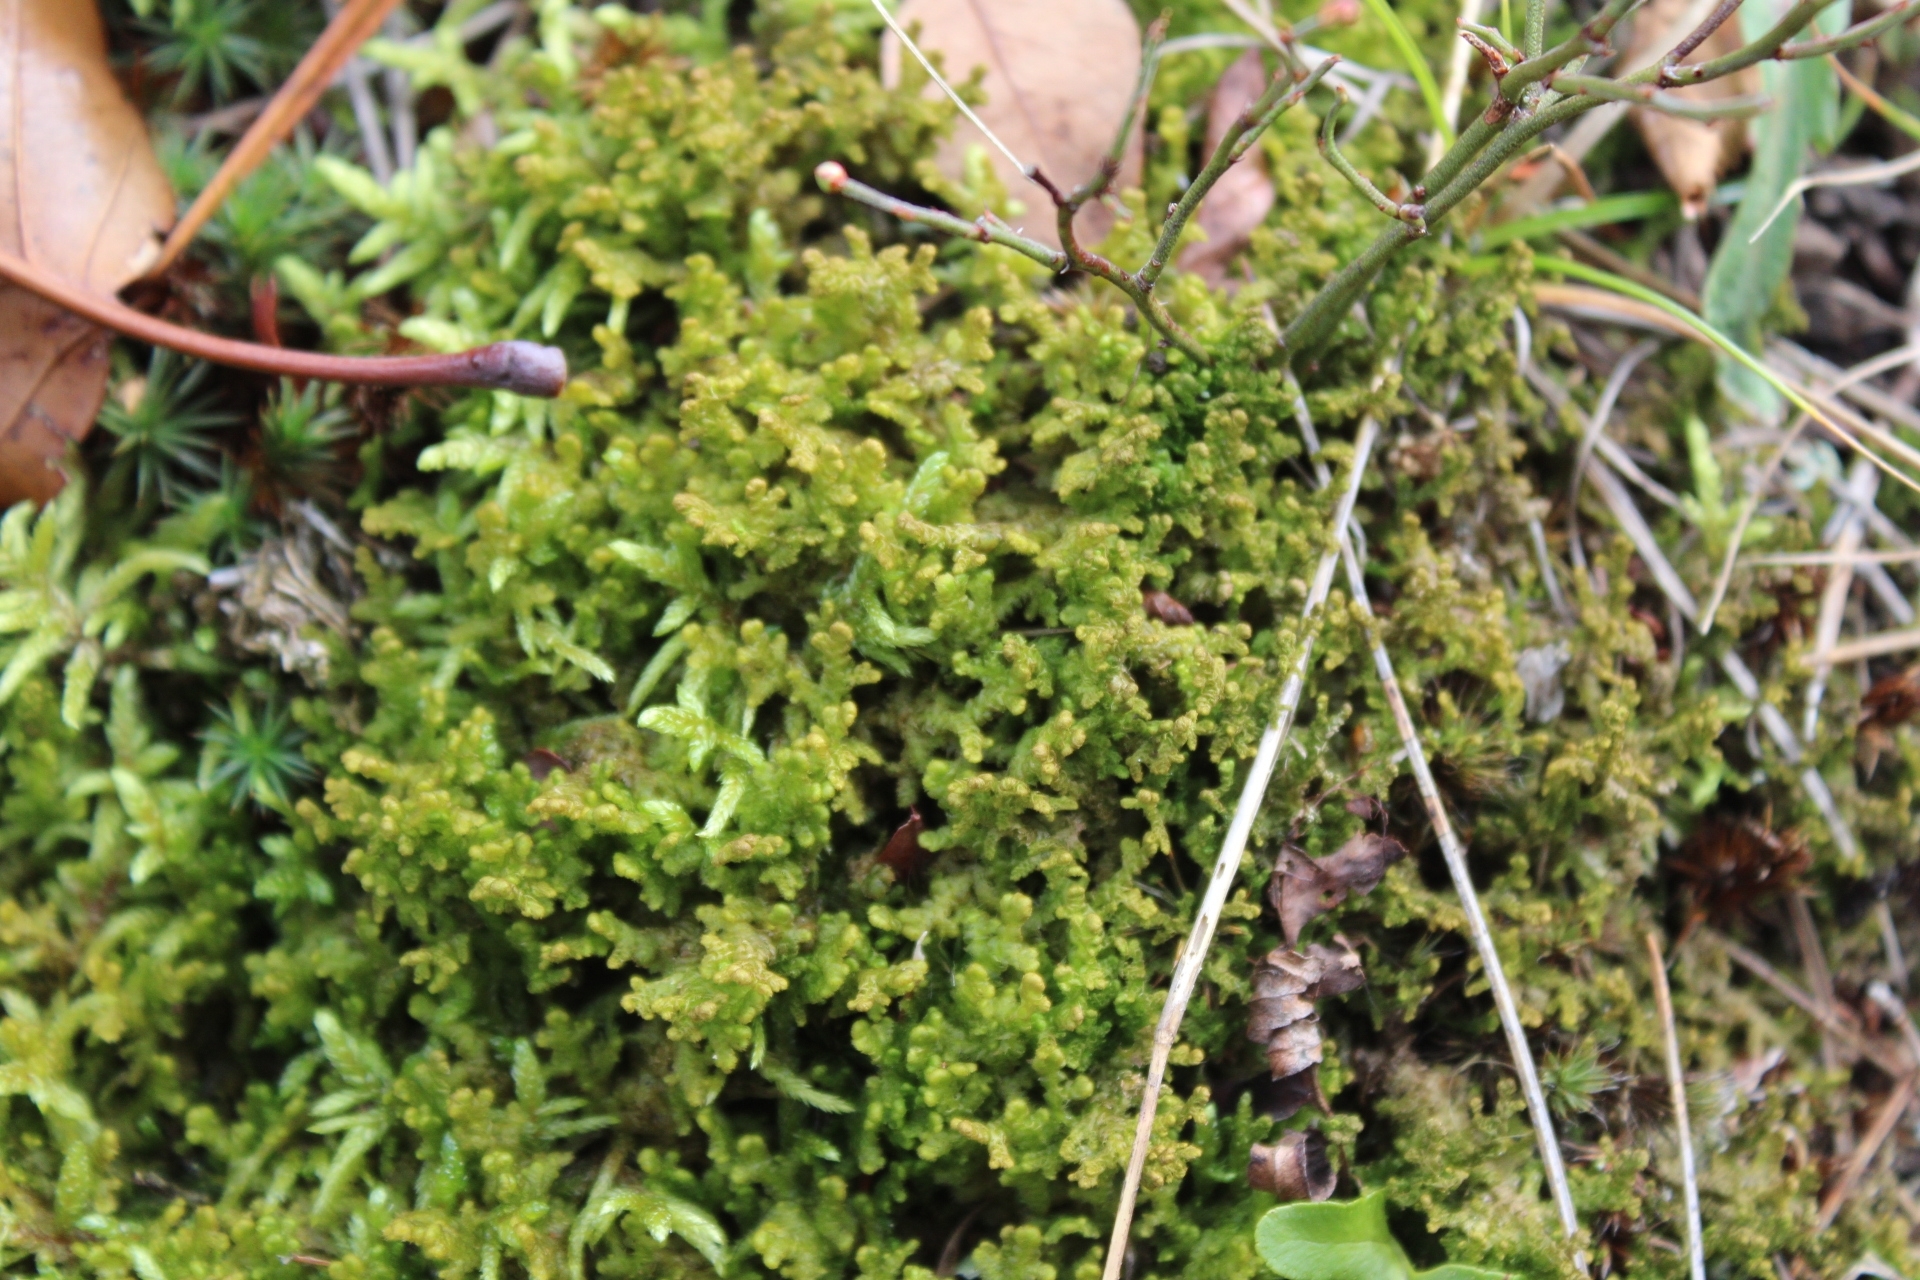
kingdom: Plantae
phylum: Marchantiophyta
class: Jungermanniopsida
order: Ptilidiales
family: Ptilidiaceae
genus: Ptilidium
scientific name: Ptilidium ciliare
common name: Ciliate fringewort
